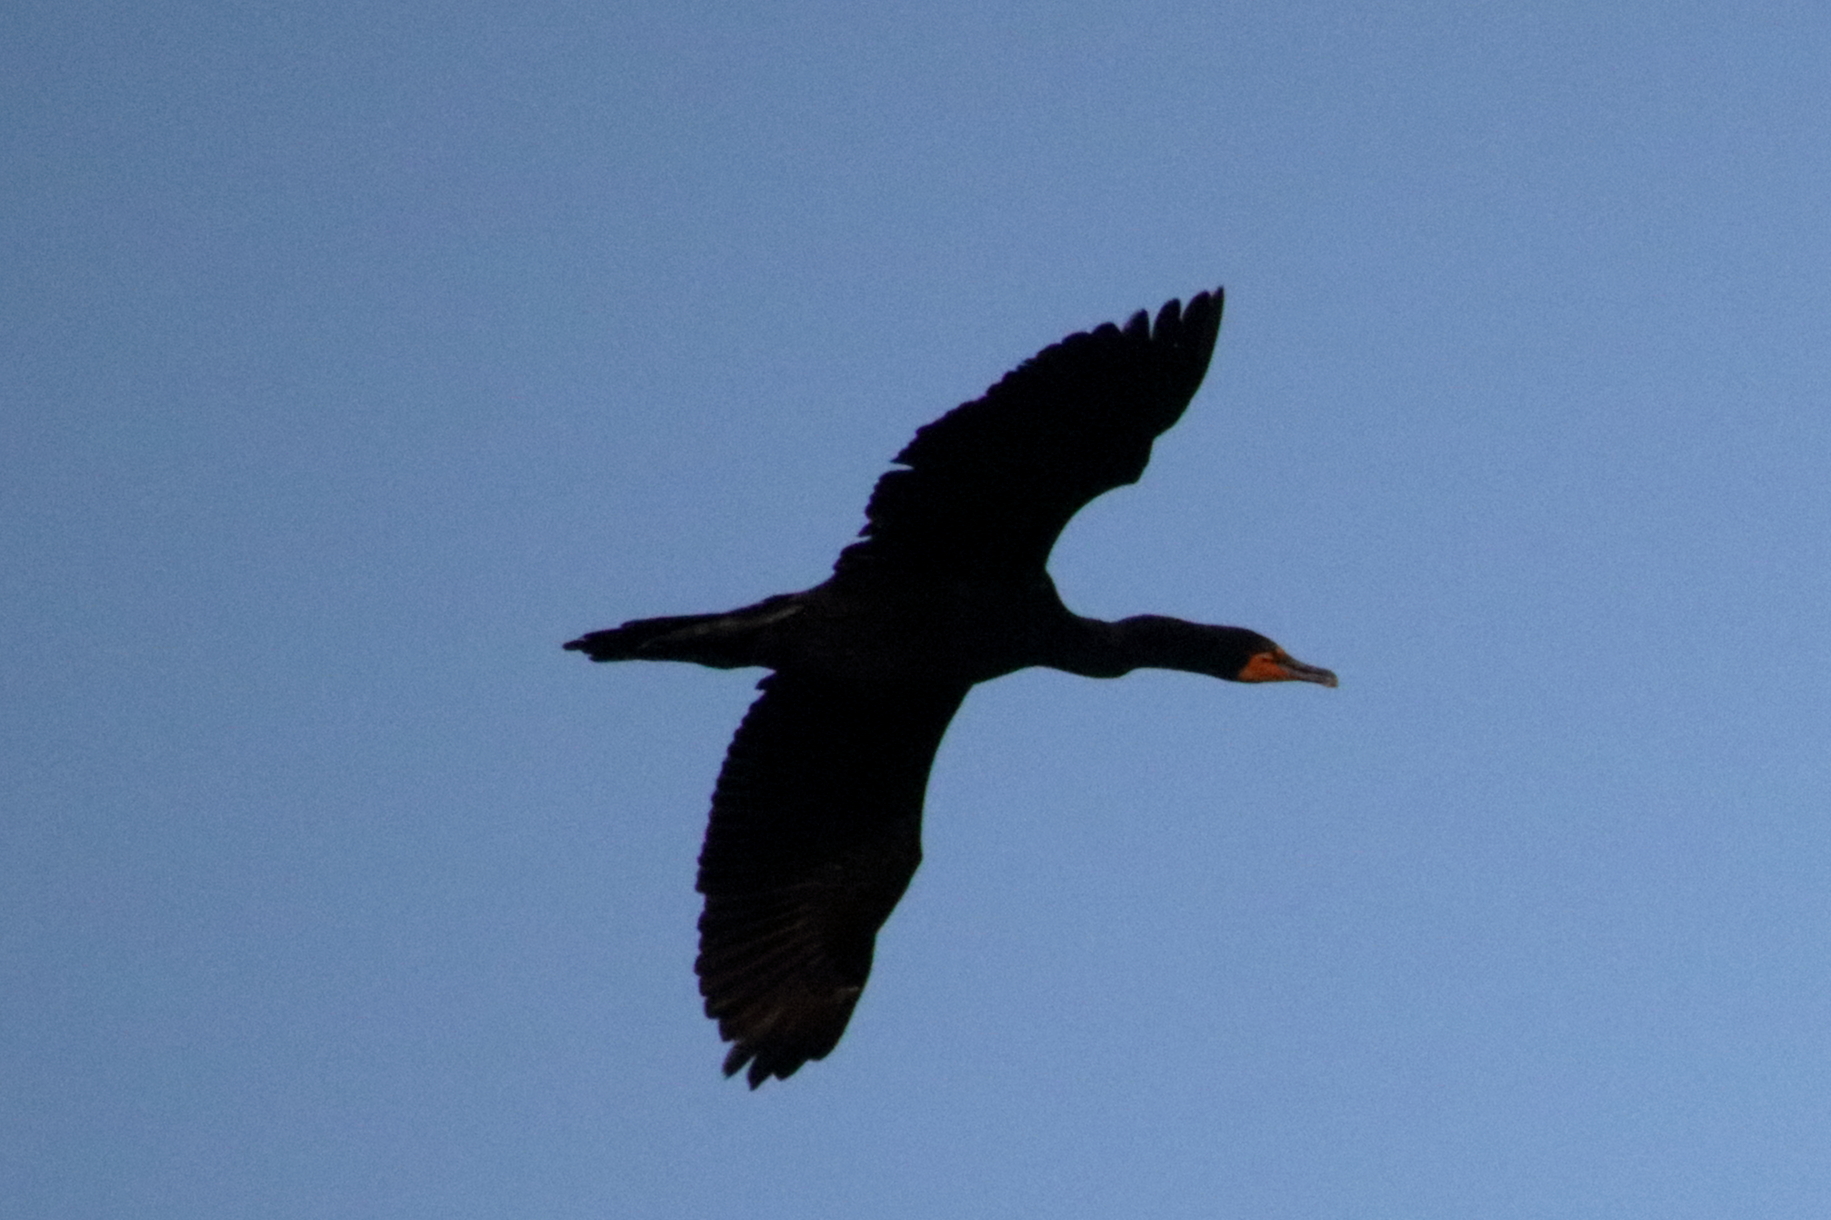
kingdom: Animalia
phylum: Chordata
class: Aves
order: Suliformes
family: Phalacrocoracidae
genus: Phalacrocorax
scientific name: Phalacrocorax auritus
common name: Double-crested cormorant
